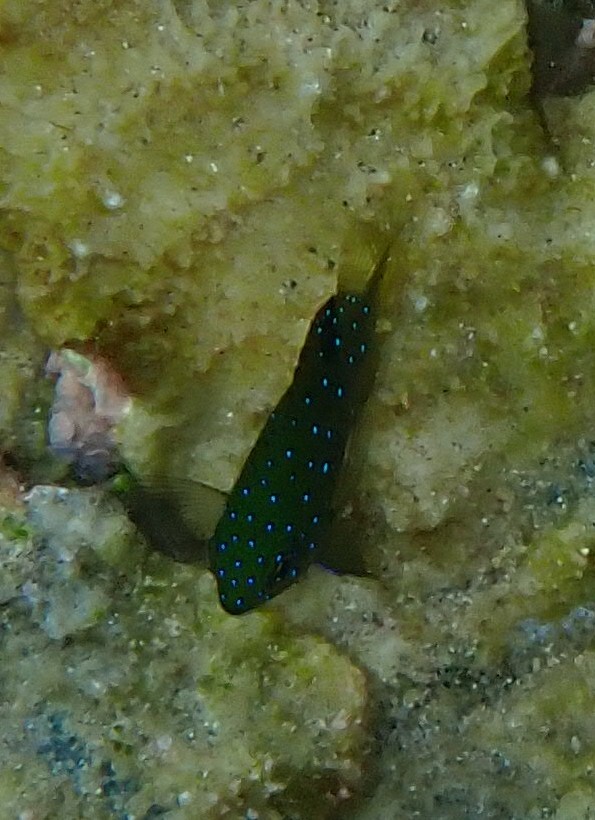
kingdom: Animalia
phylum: Chordata
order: Perciformes
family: Pomacentridae
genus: Plectroglyphidodon
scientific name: Plectroglyphidodon lacrymatus
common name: Jewel damsel
